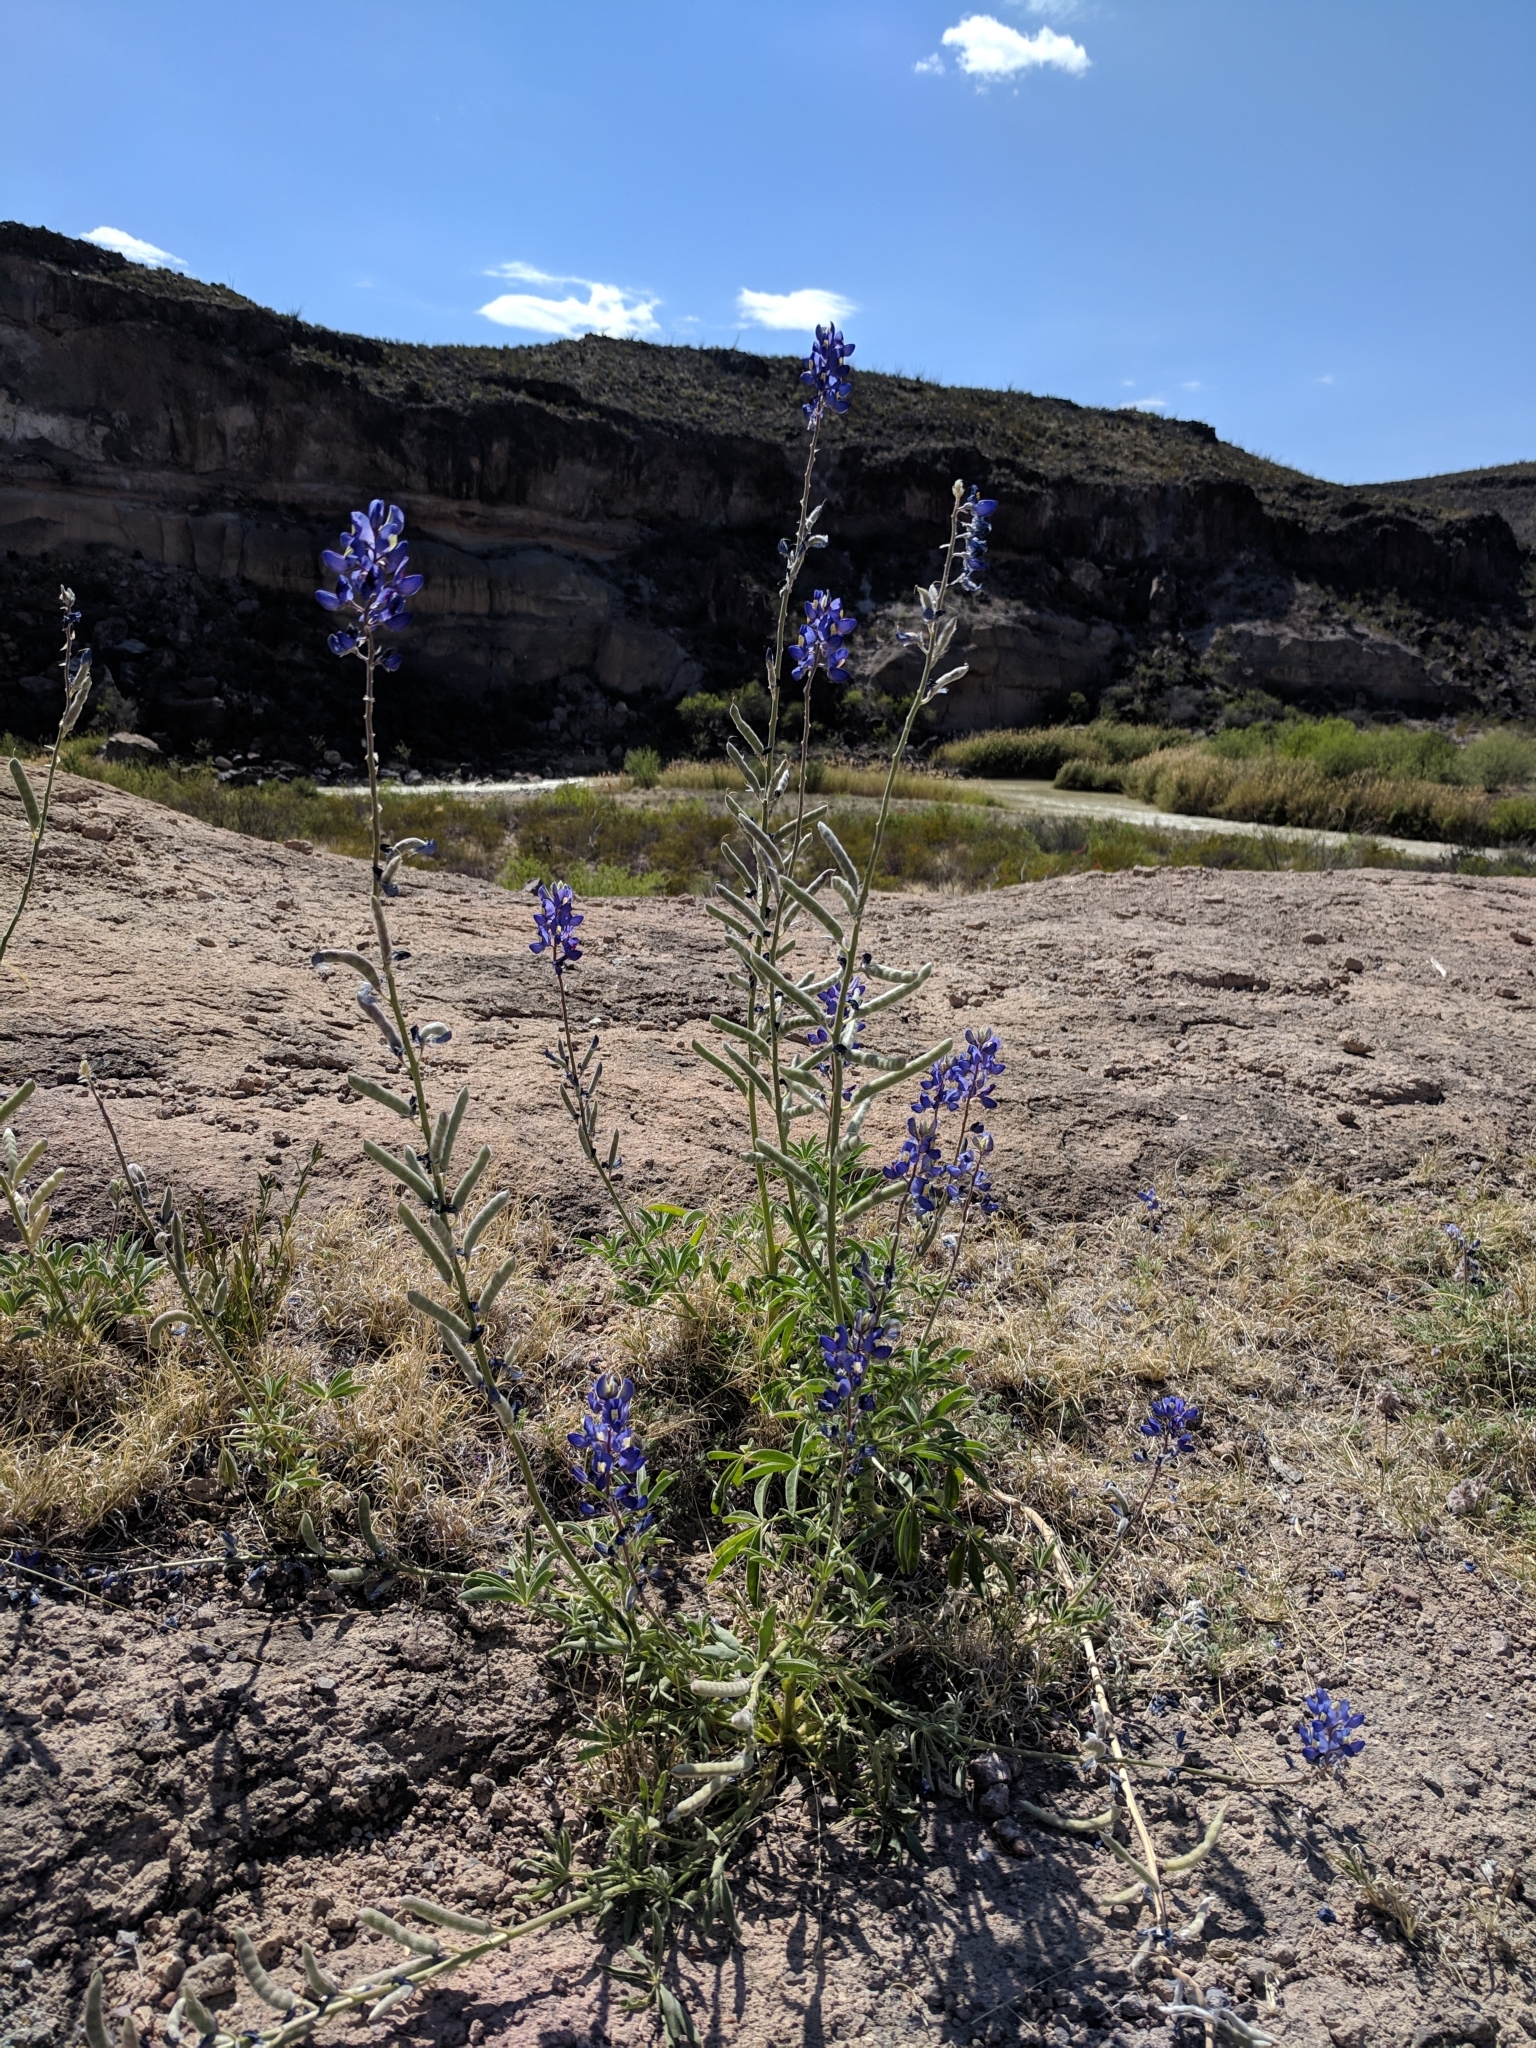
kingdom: Plantae
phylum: Tracheophyta
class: Magnoliopsida
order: Fabales
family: Fabaceae
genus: Lupinus
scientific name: Lupinus havardii
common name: Chisos bluebonnet
